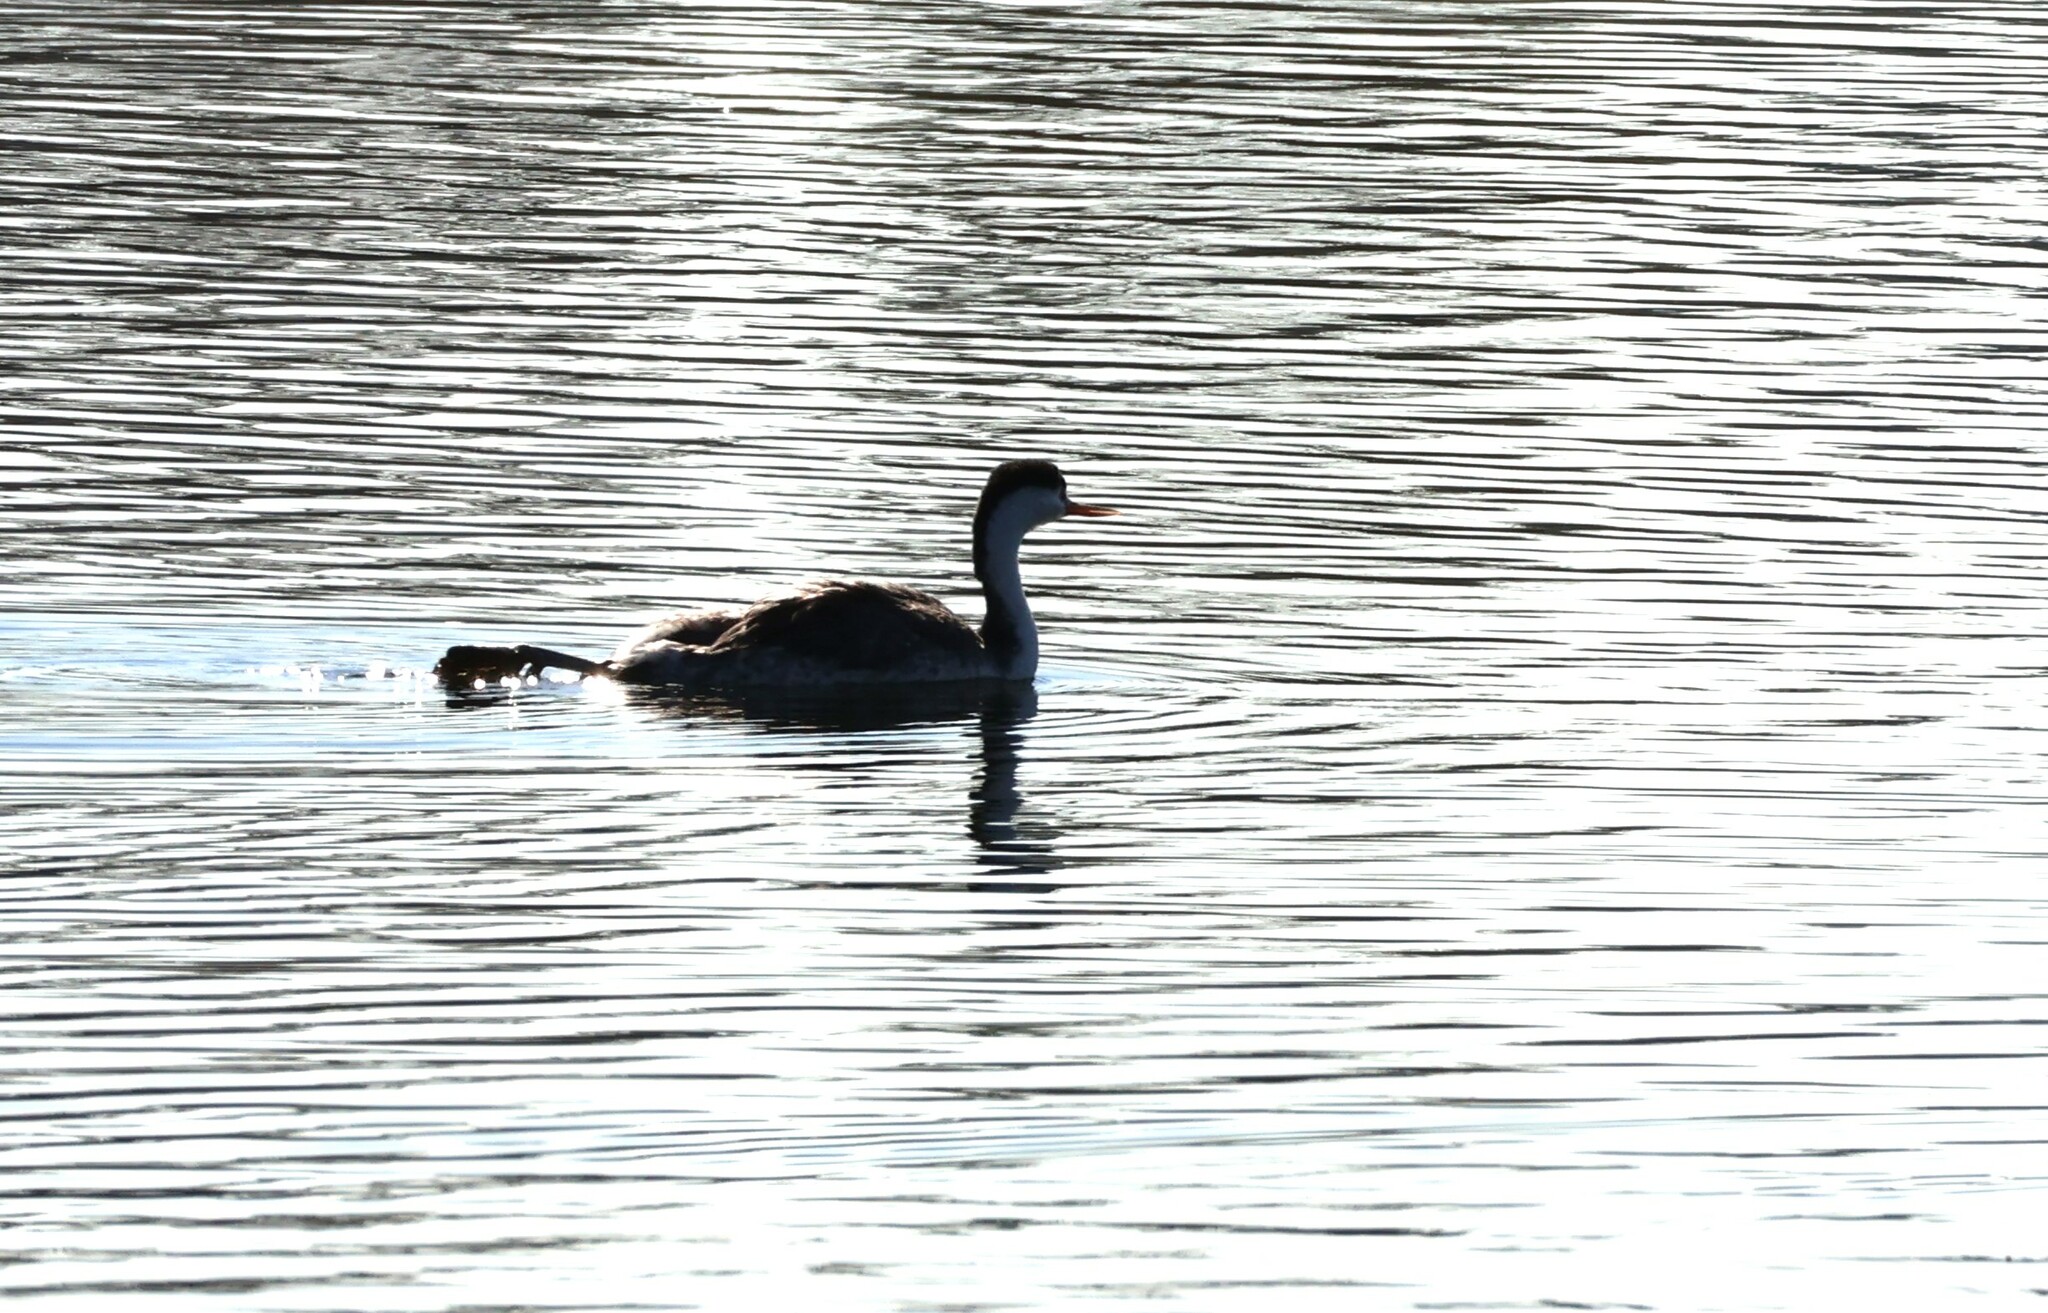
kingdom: Animalia
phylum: Chordata
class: Aves
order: Podicipediformes
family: Podicipedidae
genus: Aechmophorus
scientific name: Aechmophorus clarkii
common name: Clark's grebe
